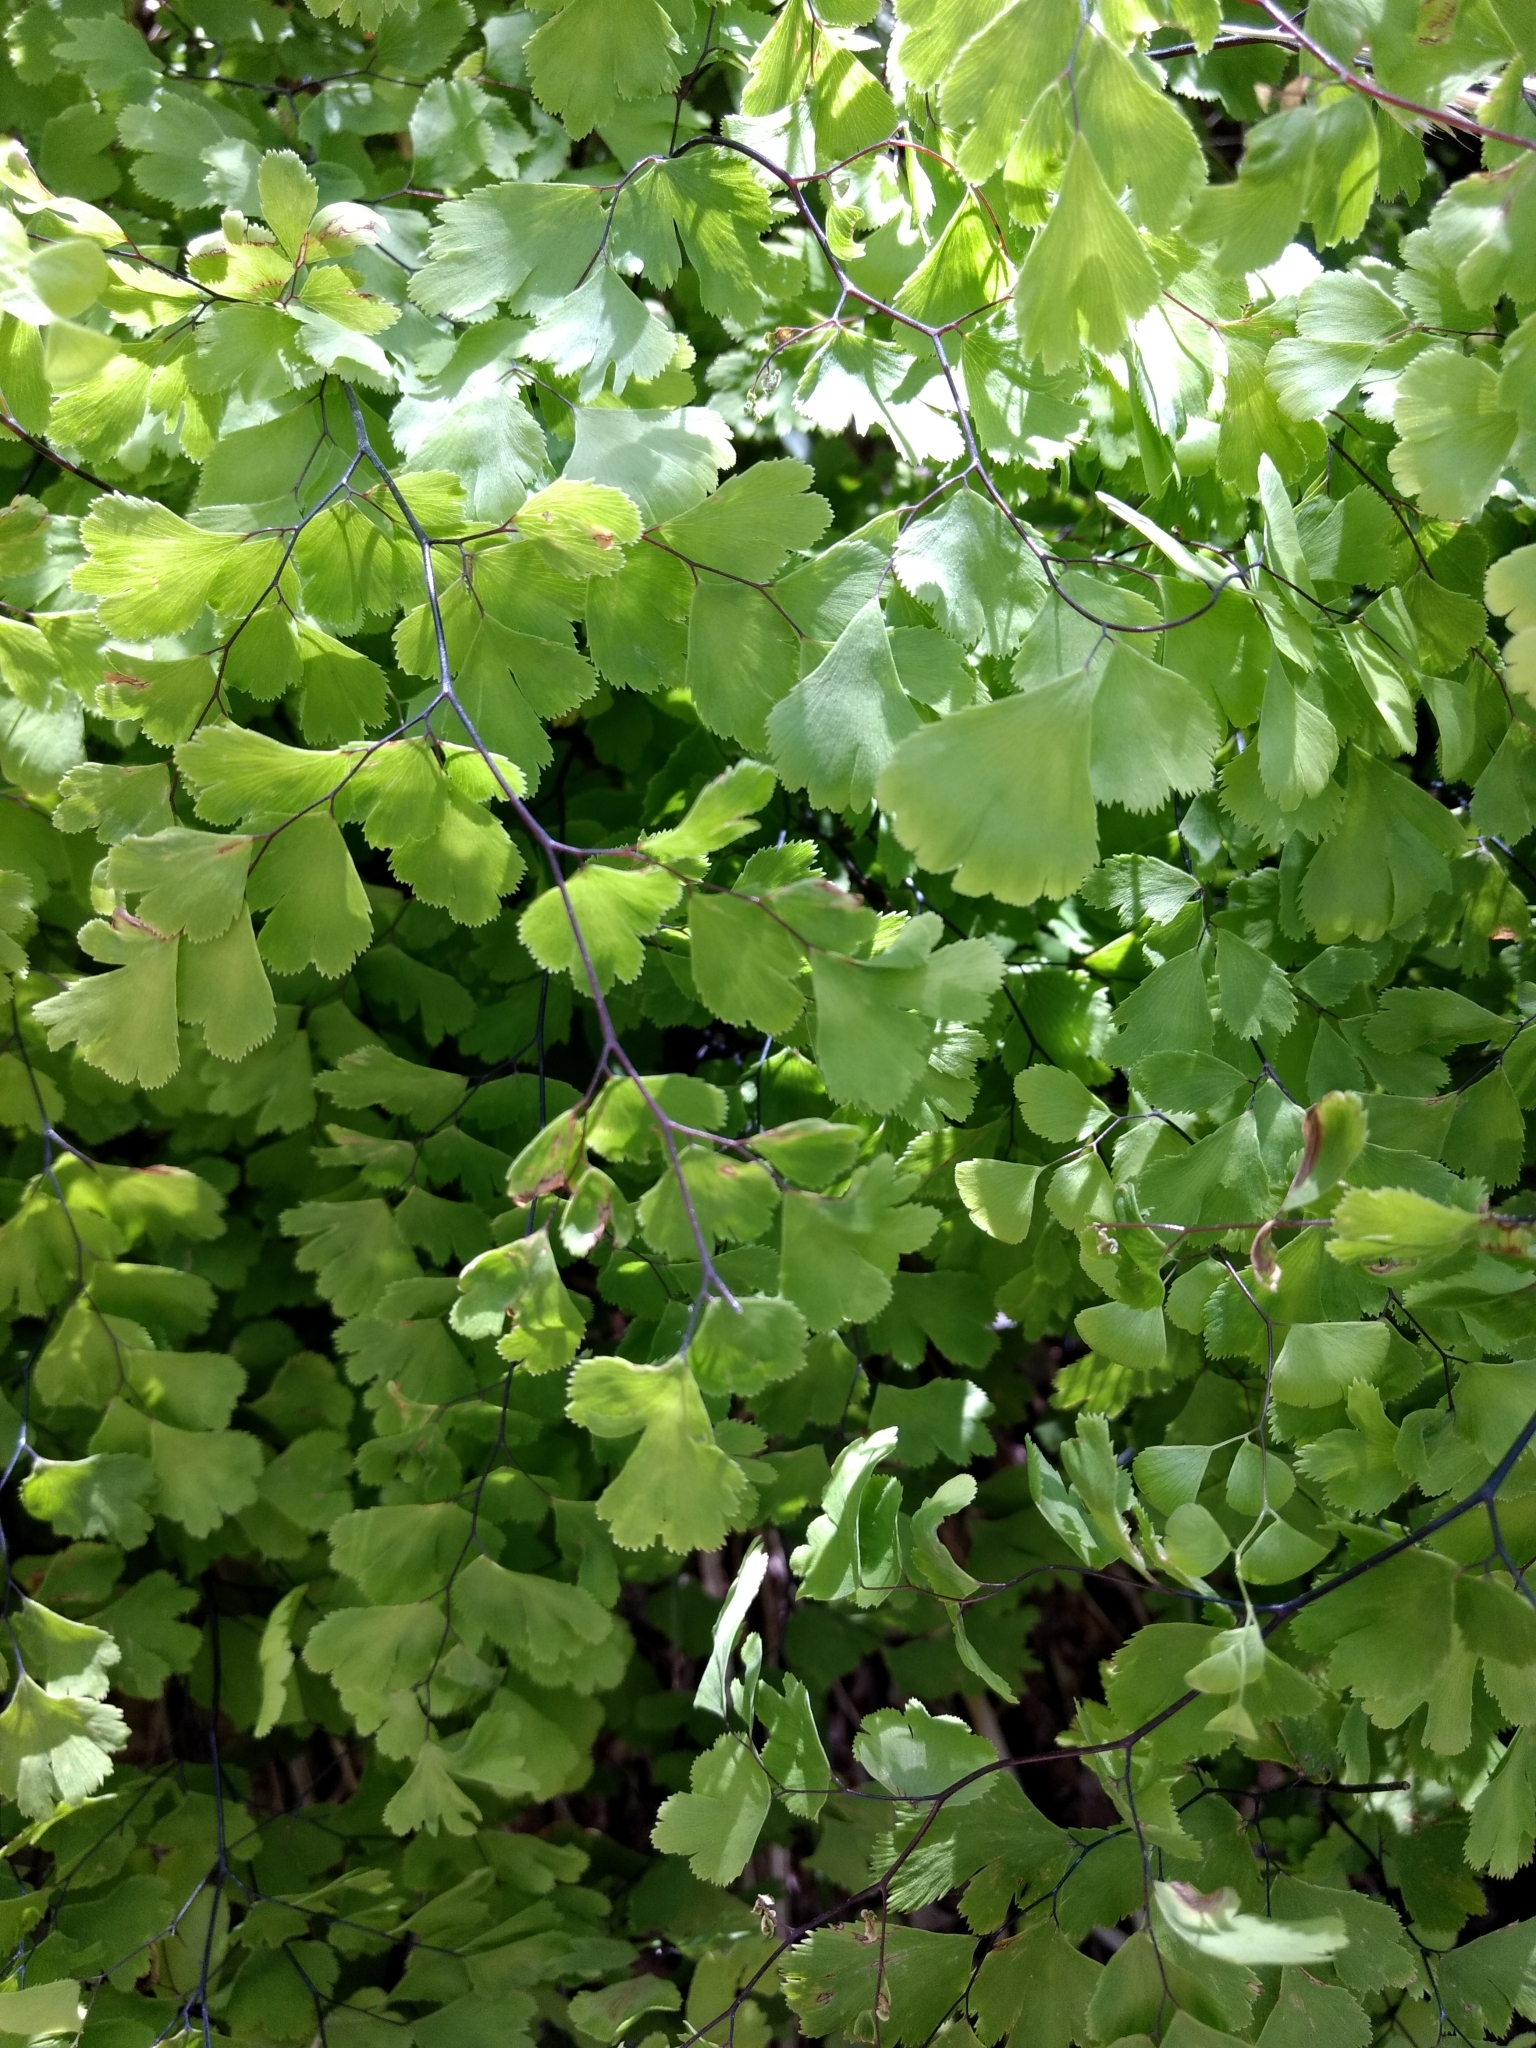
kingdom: Plantae
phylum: Tracheophyta
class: Polypodiopsida
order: Polypodiales
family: Pteridaceae
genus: Adiantum
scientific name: Adiantum capillus-veneris
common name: Maidenhair fern
